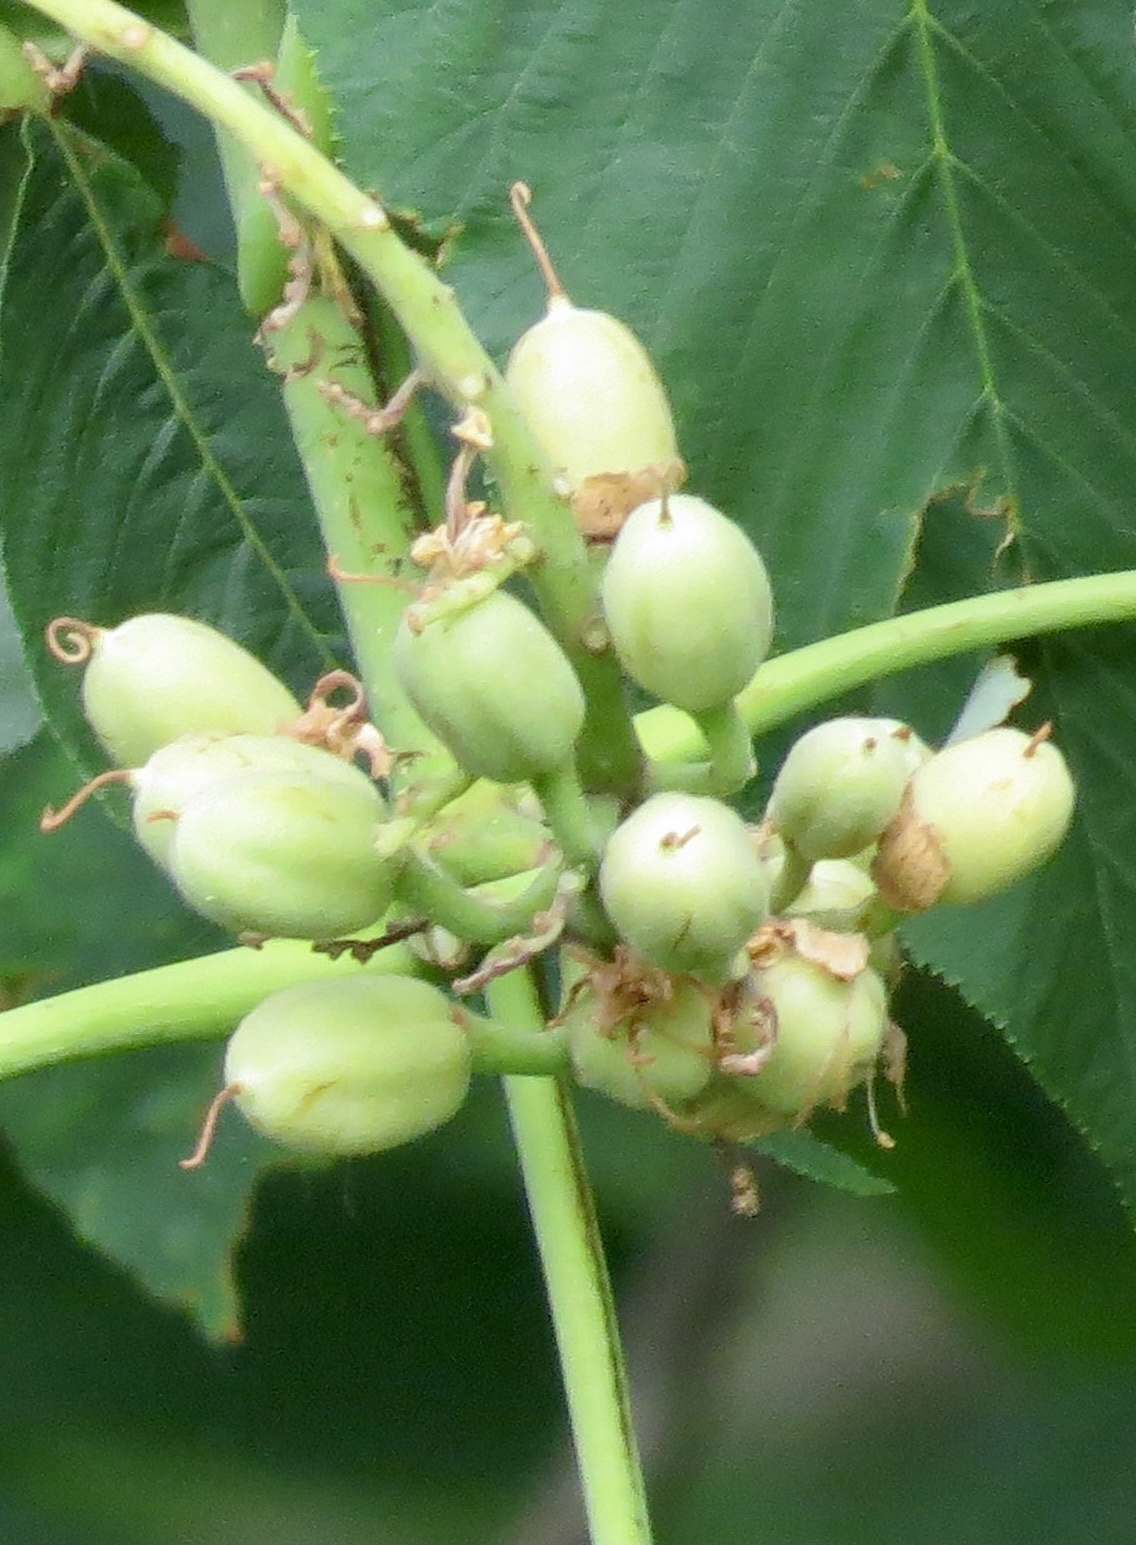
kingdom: Plantae
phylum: Tracheophyta
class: Magnoliopsida
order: Sapindales
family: Sapindaceae
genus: Aesculus
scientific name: Aesculus flava
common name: Yellow buckeye
